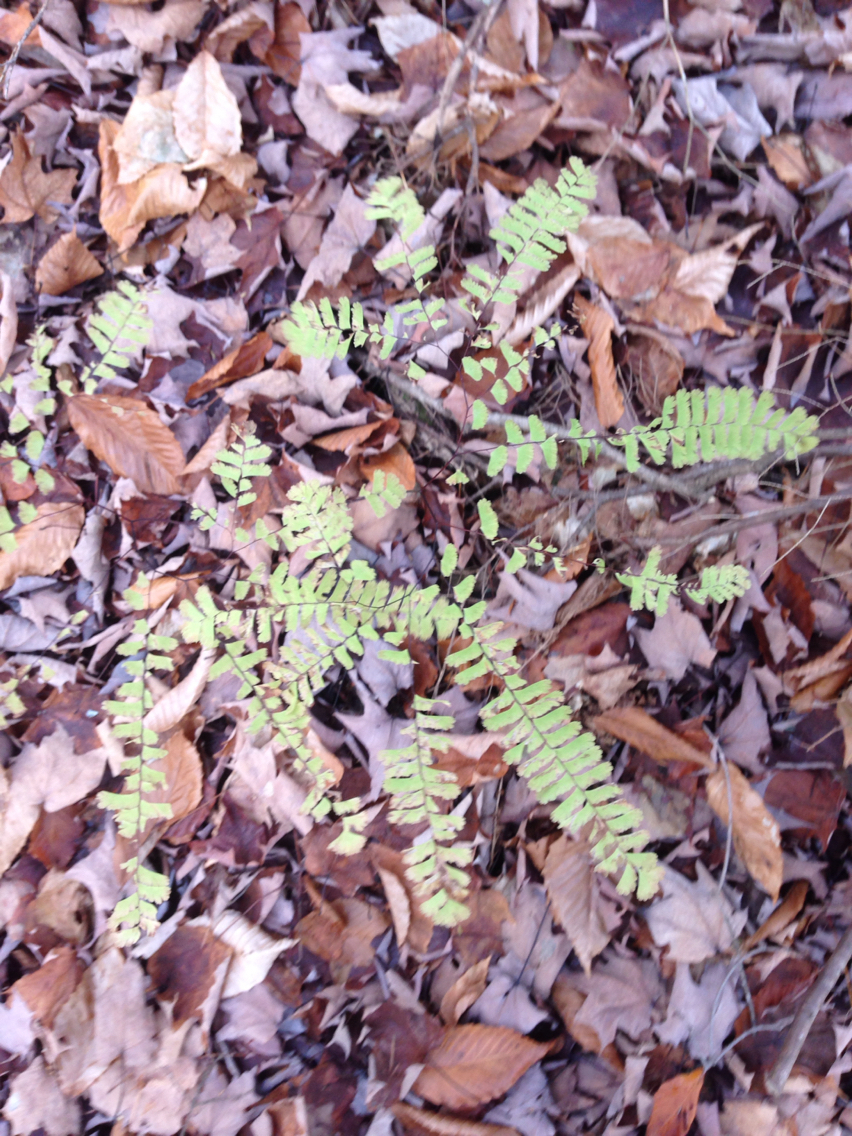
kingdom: Plantae
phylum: Tracheophyta
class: Polypodiopsida
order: Polypodiales
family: Pteridaceae
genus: Adiantum
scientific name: Adiantum pedatum
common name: Five-finger fern
